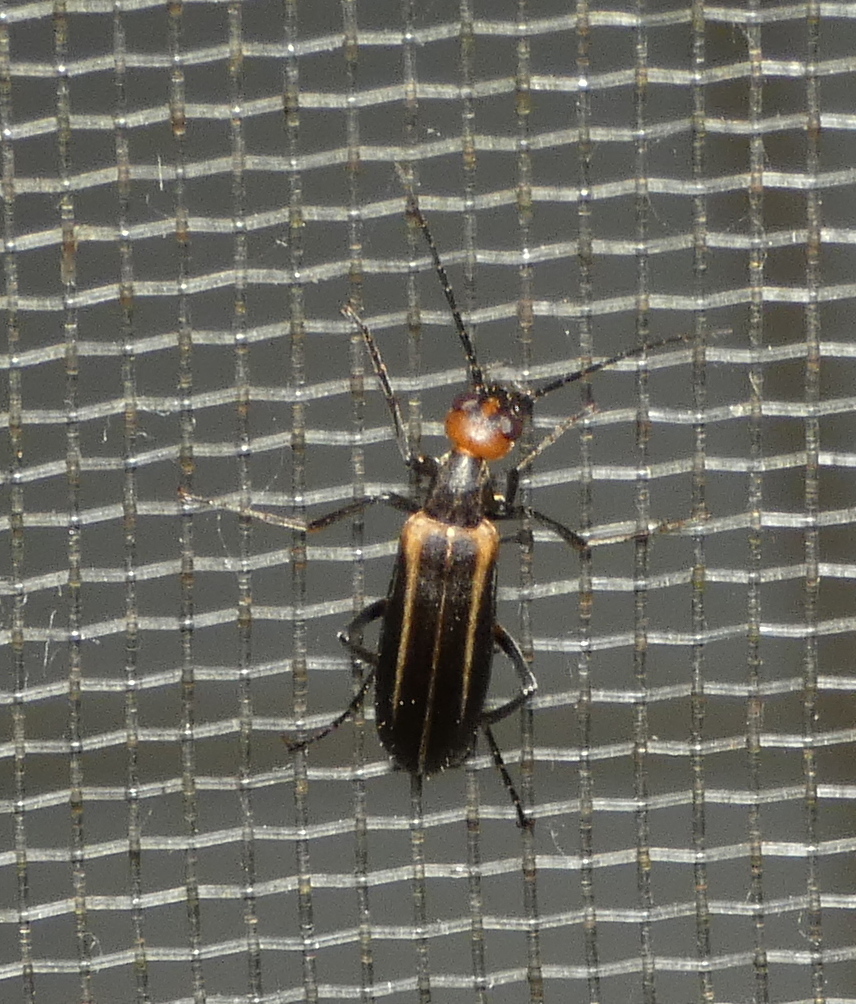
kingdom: Animalia
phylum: Arthropoda
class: Insecta
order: Coleoptera
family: Meloidae
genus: Epicauta
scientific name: Epicauta grammica
